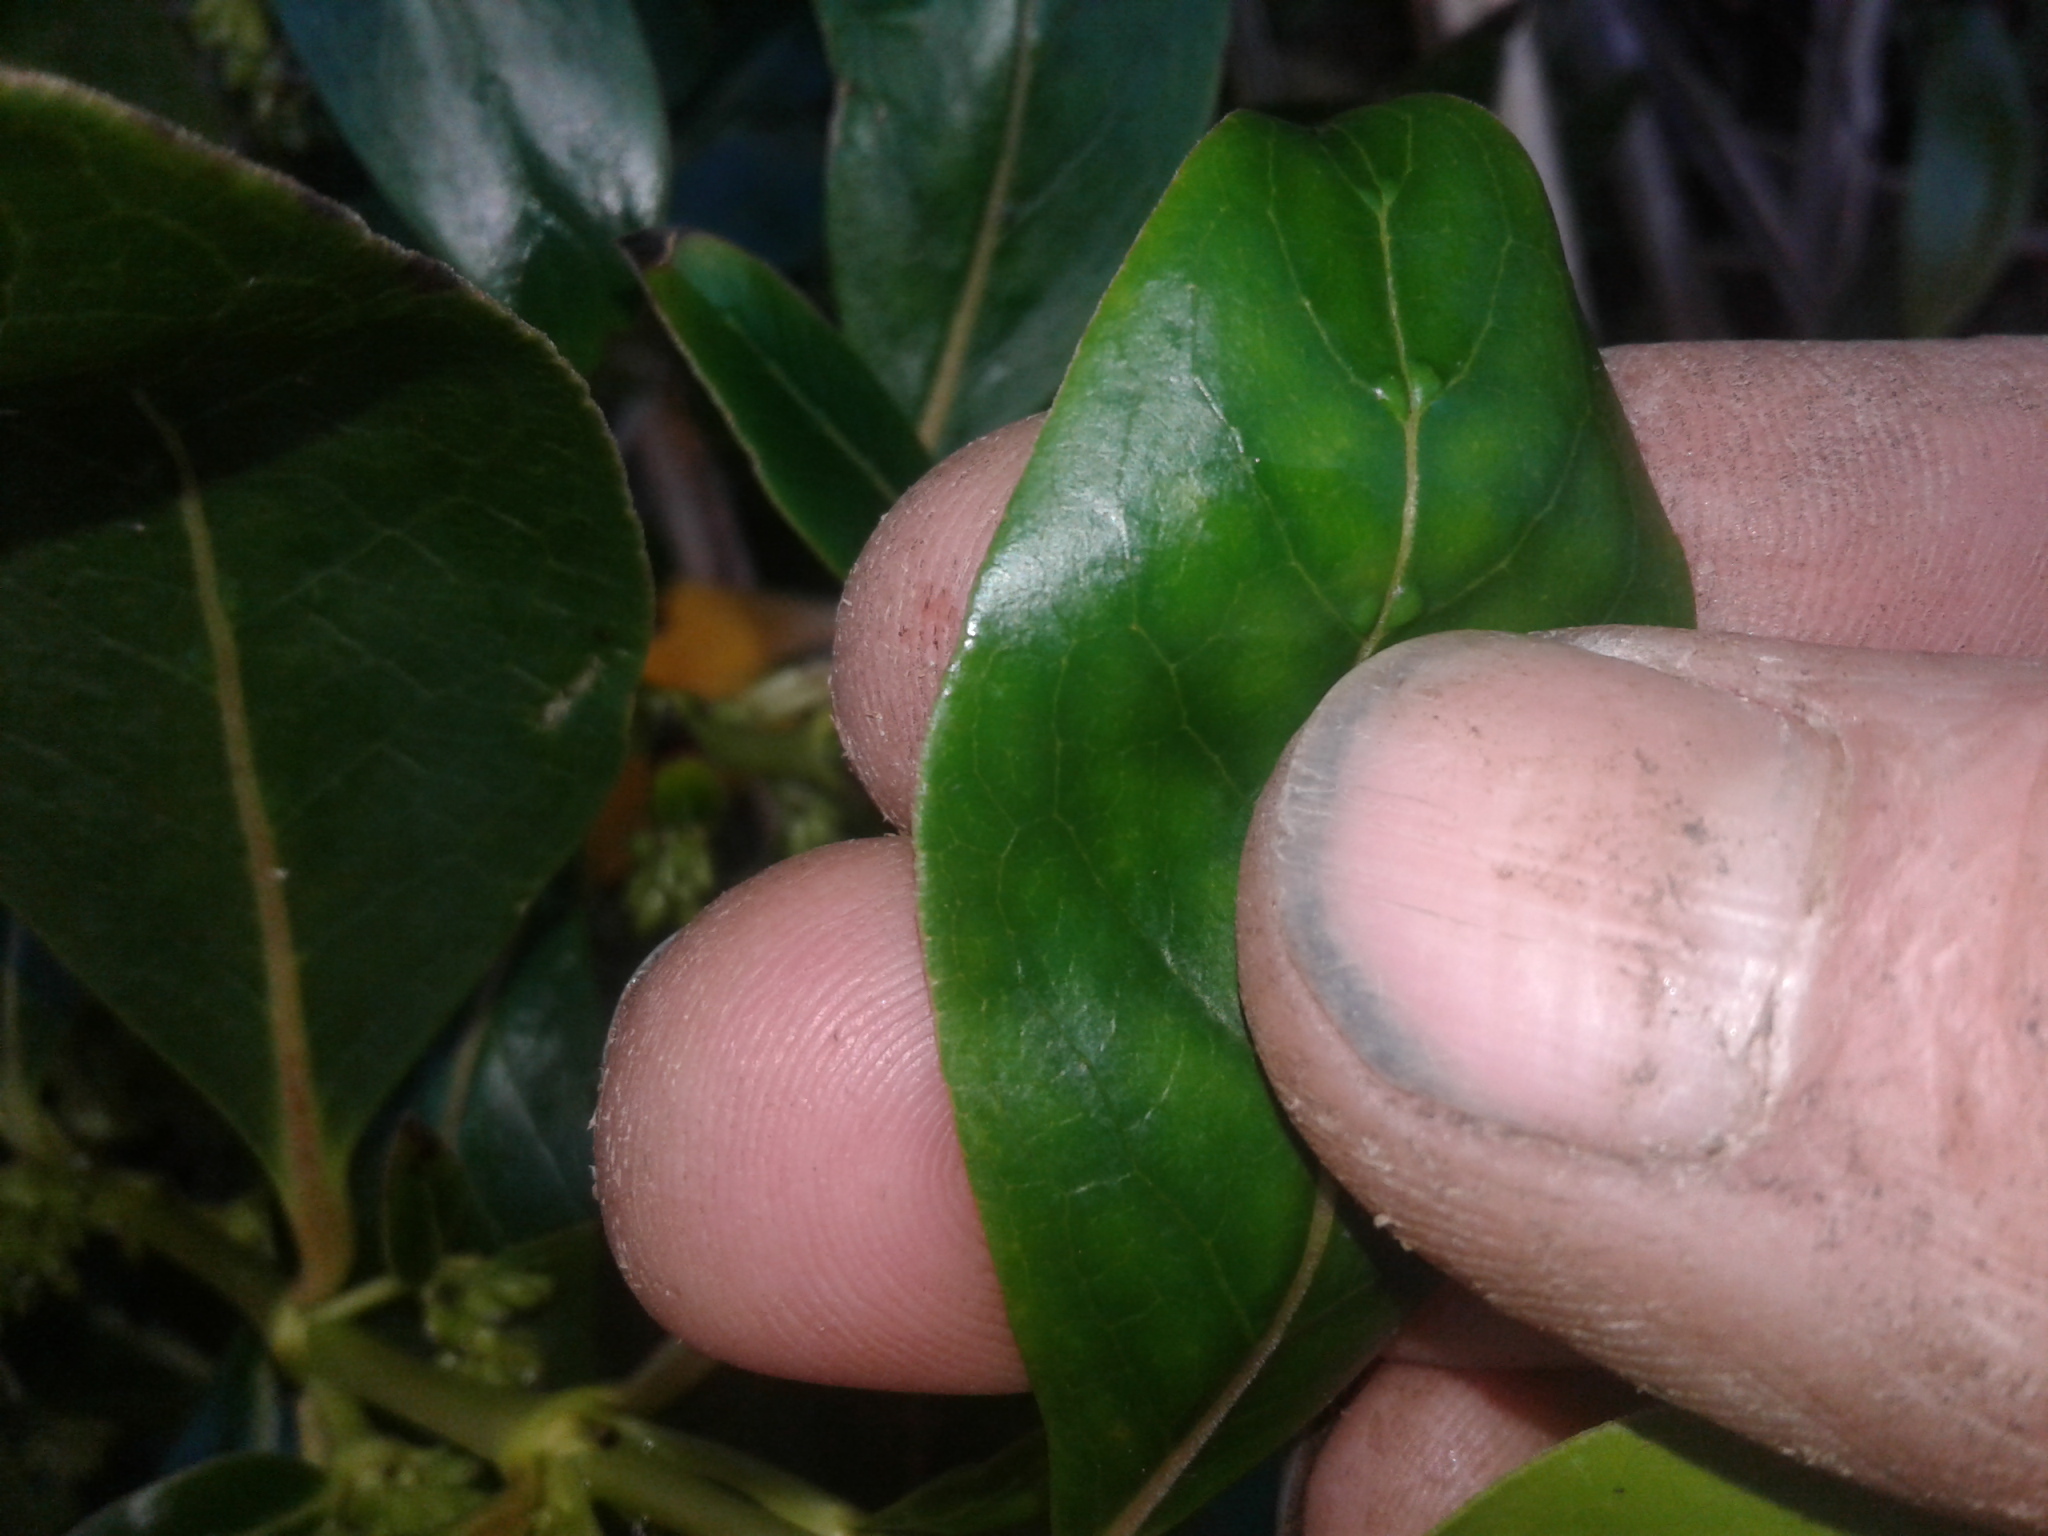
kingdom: Plantae
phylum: Tracheophyta
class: Magnoliopsida
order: Gentianales
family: Rubiaceae
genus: Coprosma
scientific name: Coprosma robusta
